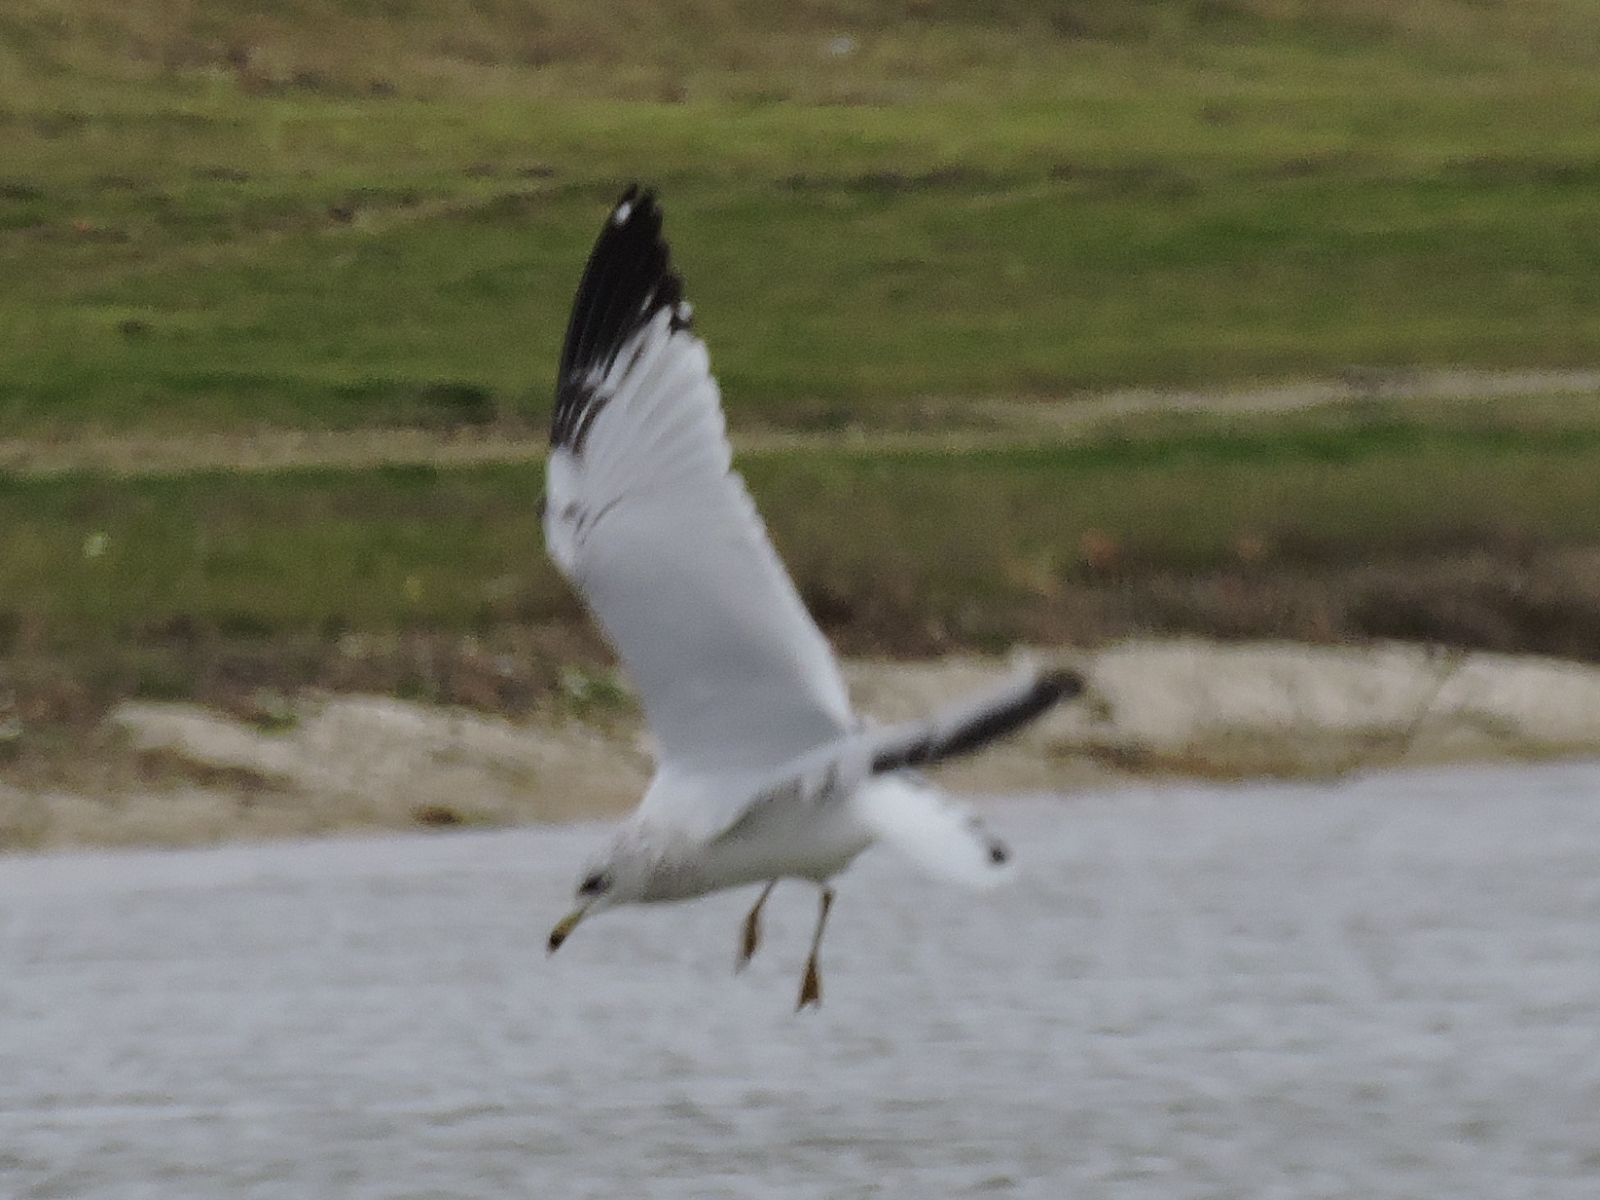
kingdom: Animalia
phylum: Chordata
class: Aves
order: Charadriiformes
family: Laridae
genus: Larus
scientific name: Larus delawarensis
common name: Ring-billed gull
